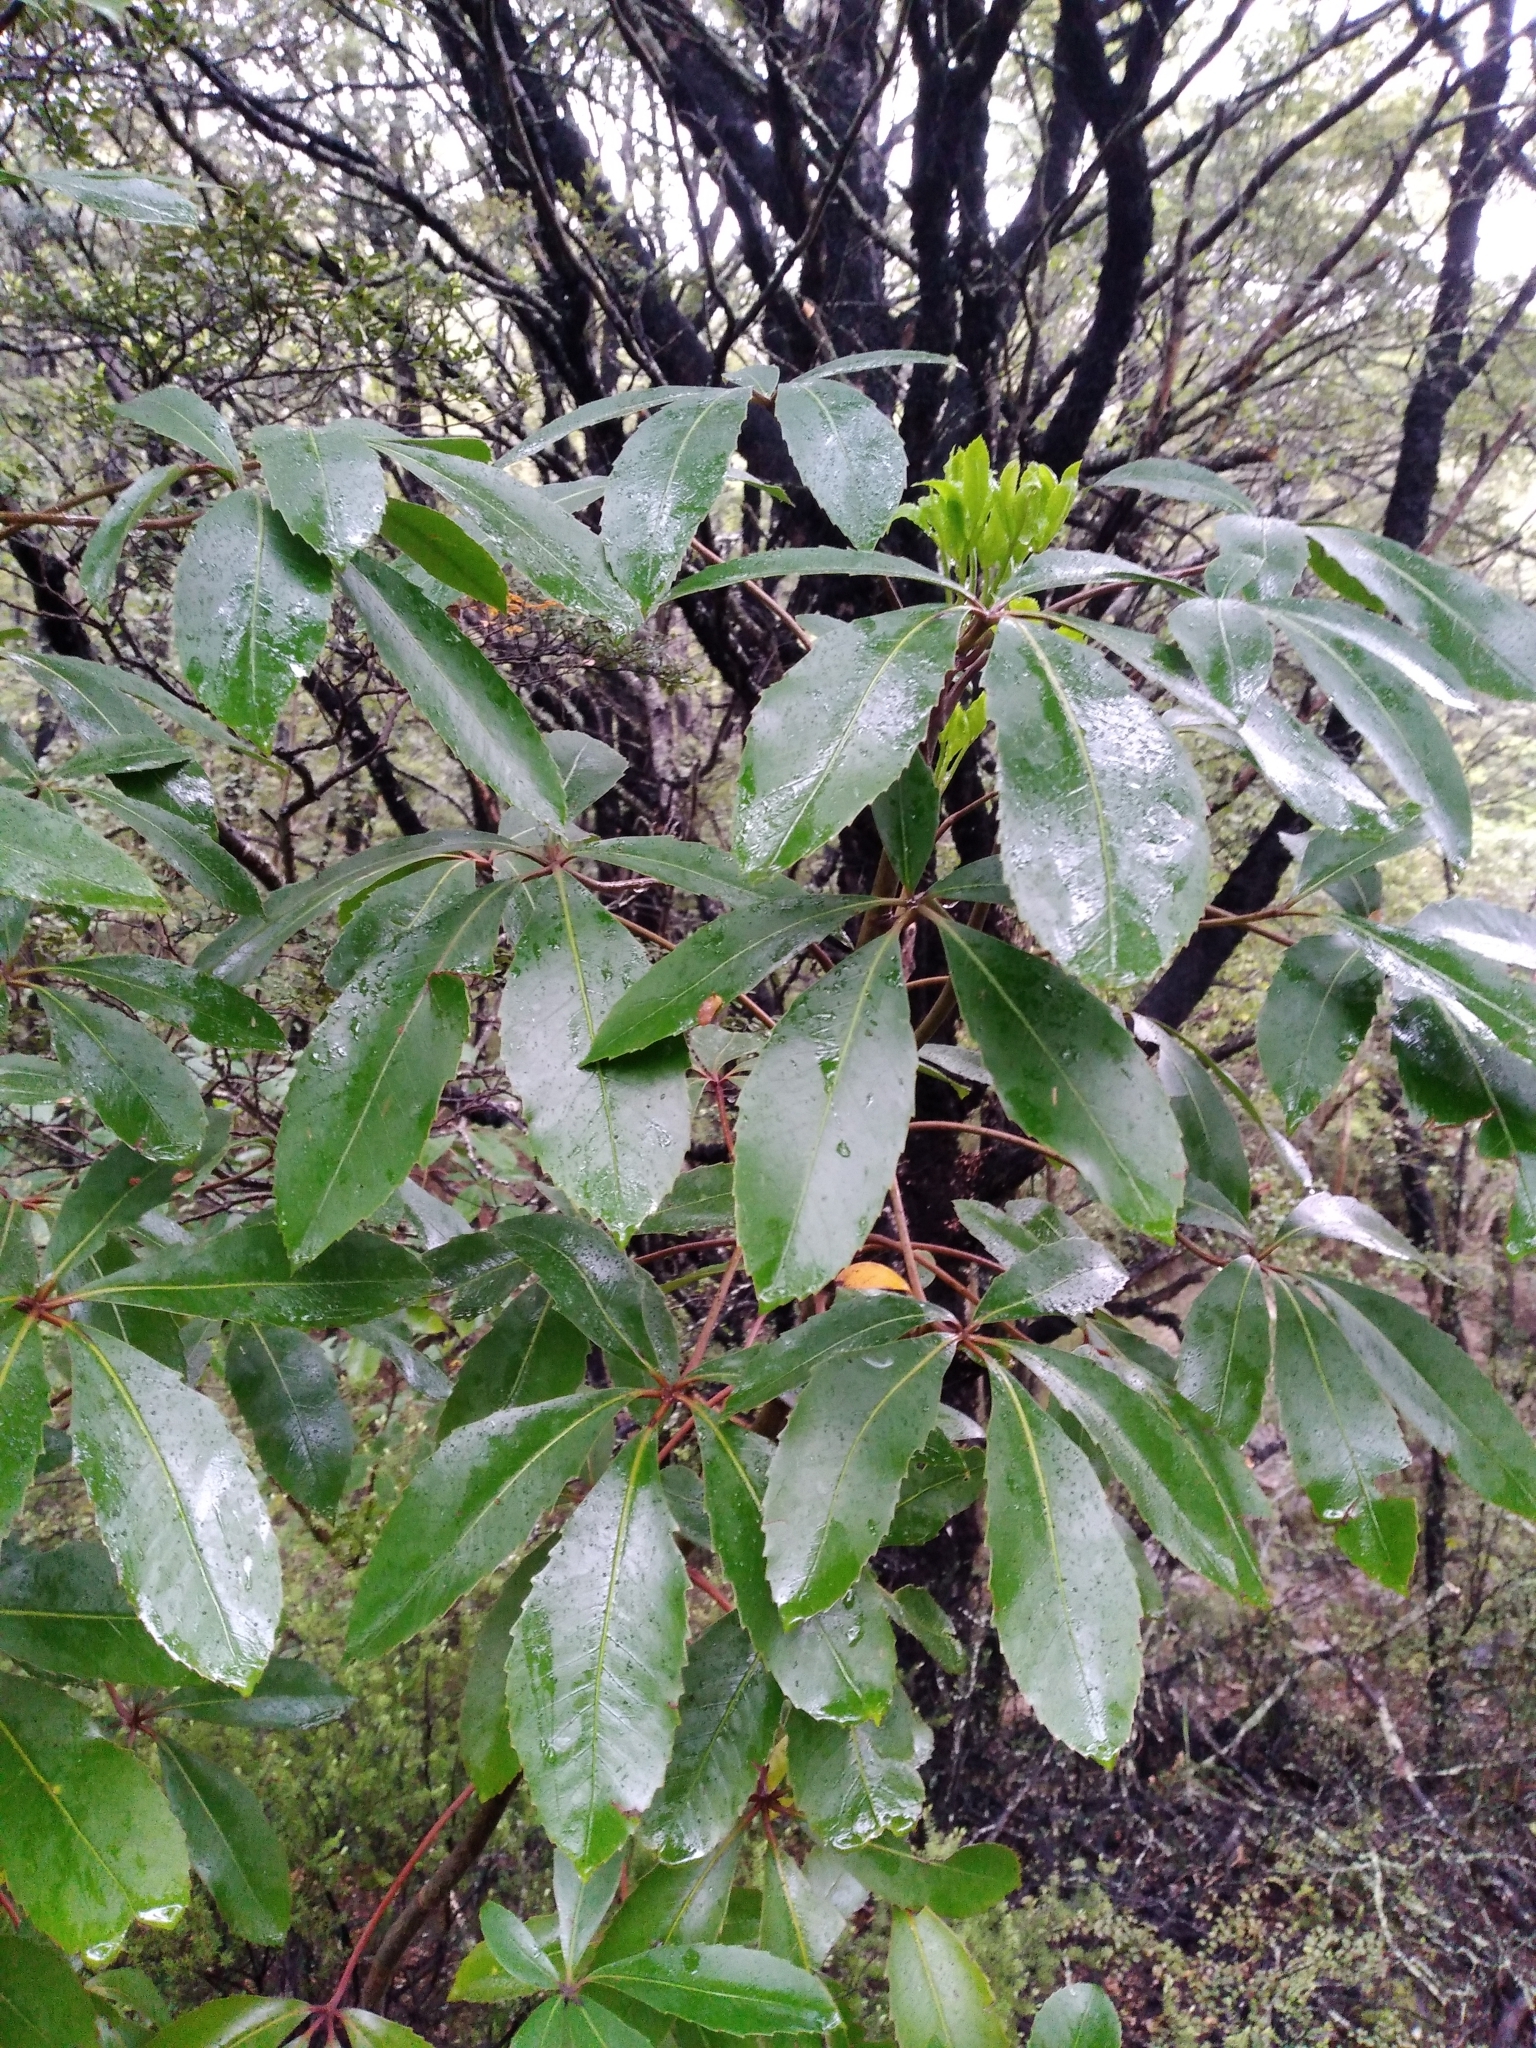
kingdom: Plantae
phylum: Tracheophyta
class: Magnoliopsida
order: Apiales
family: Araliaceae
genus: Neopanax
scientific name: Neopanax colensoi
